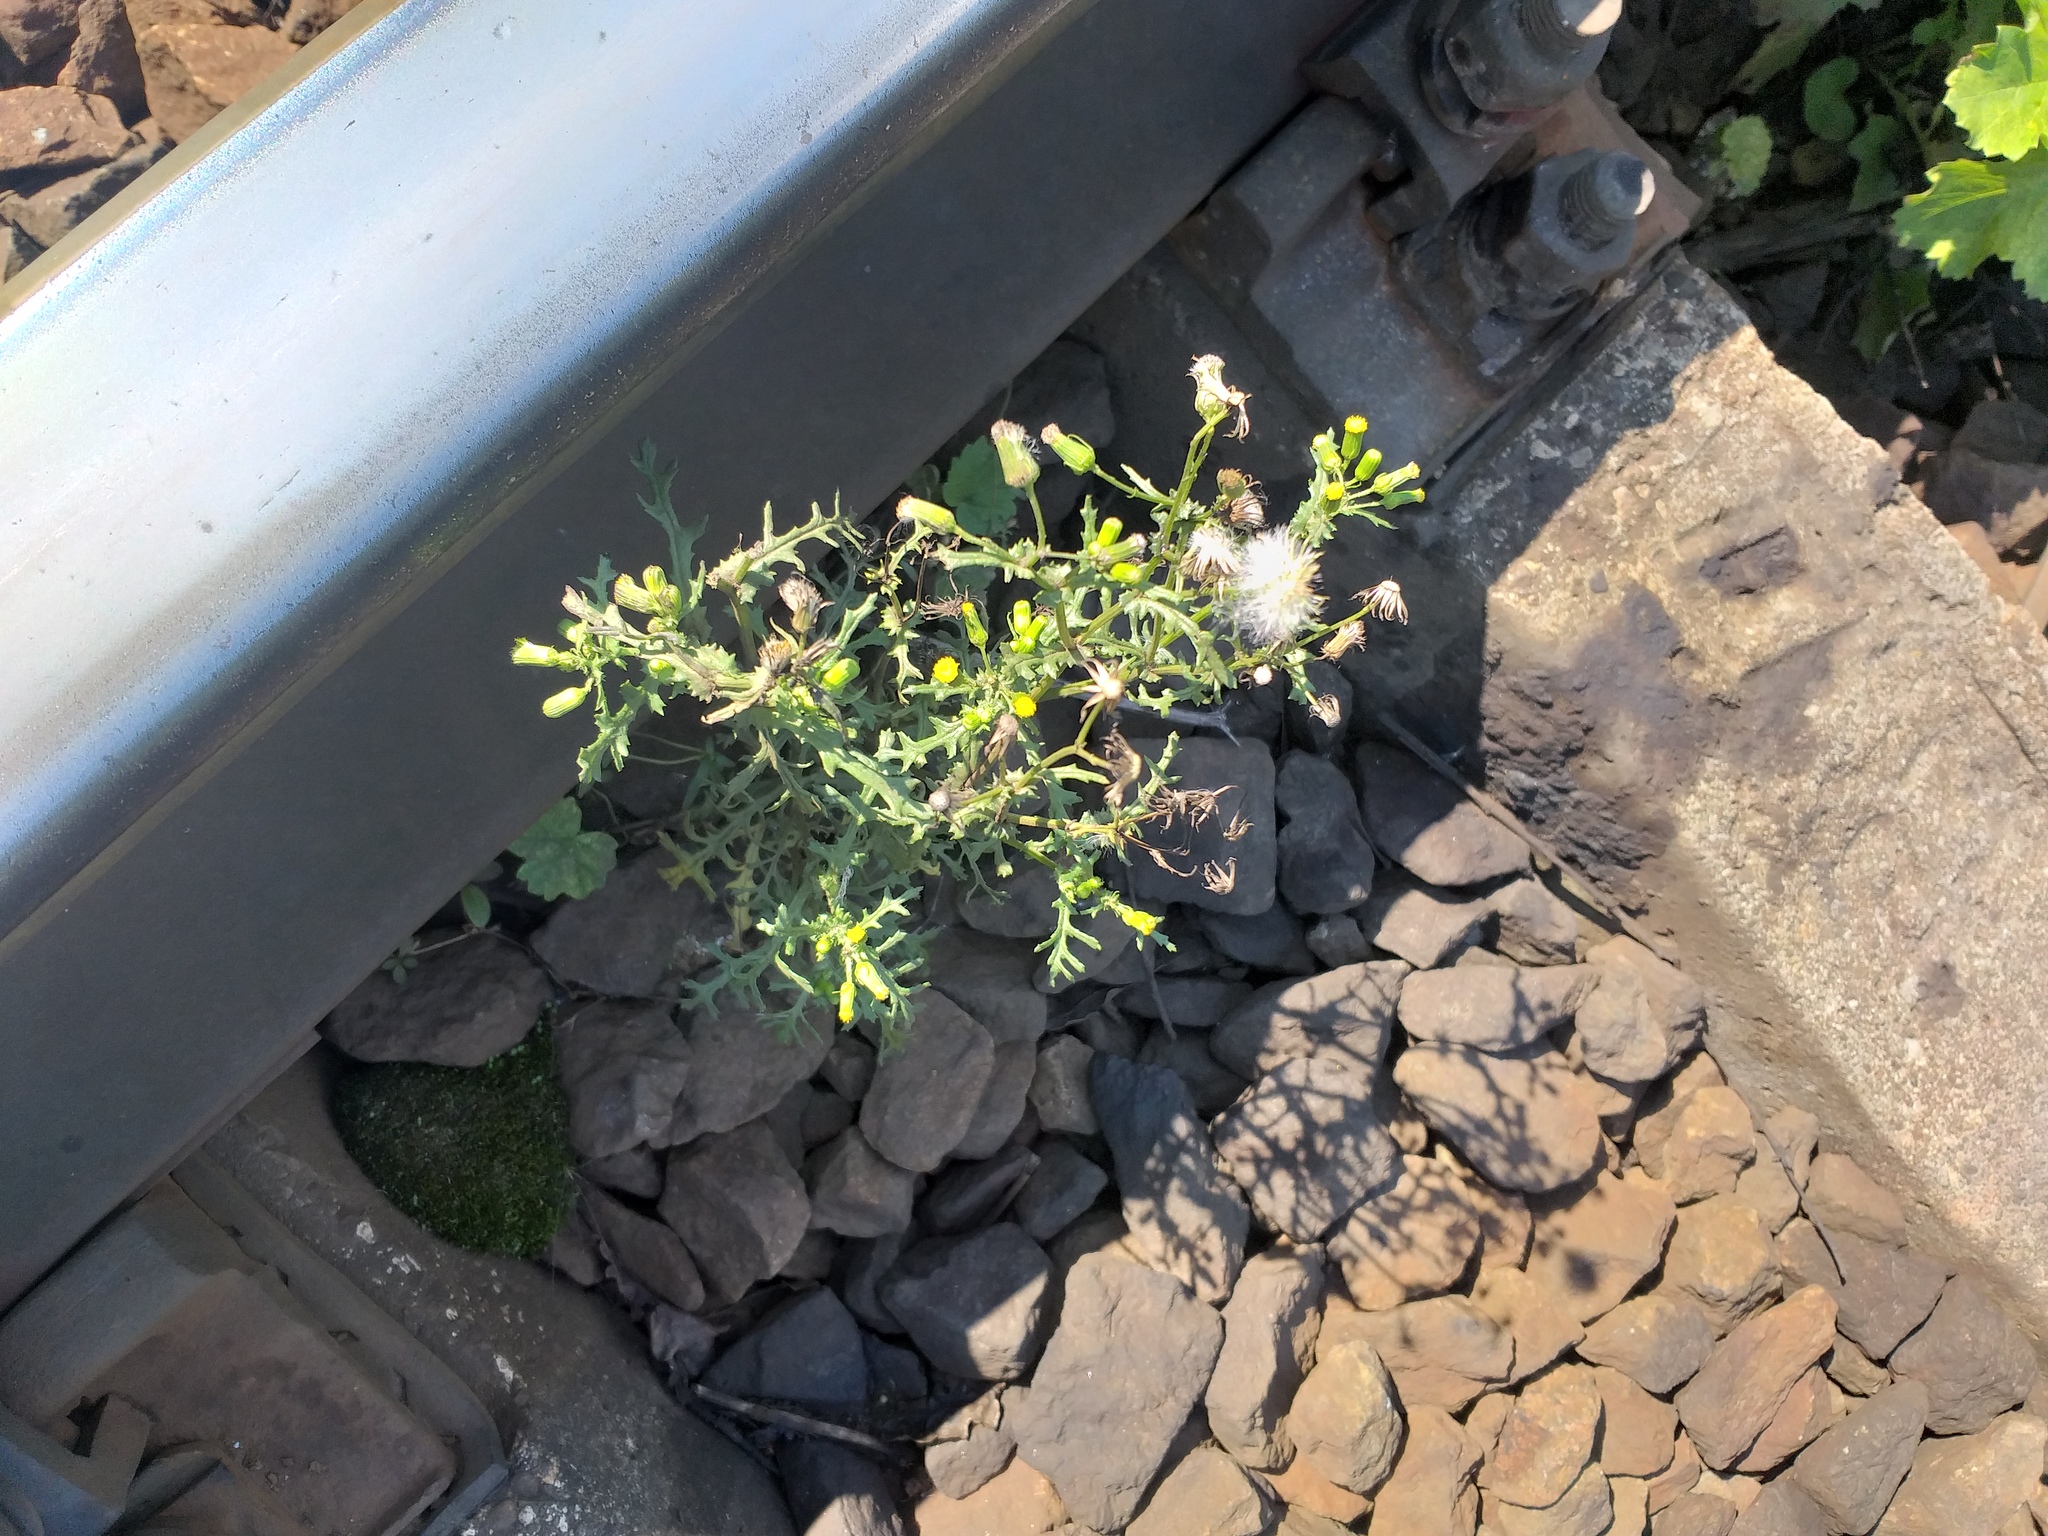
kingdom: Plantae
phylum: Tracheophyta
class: Magnoliopsida
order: Asterales
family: Asteraceae
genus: Senecio
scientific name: Senecio vulgaris
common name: Old-man-in-the-spring
